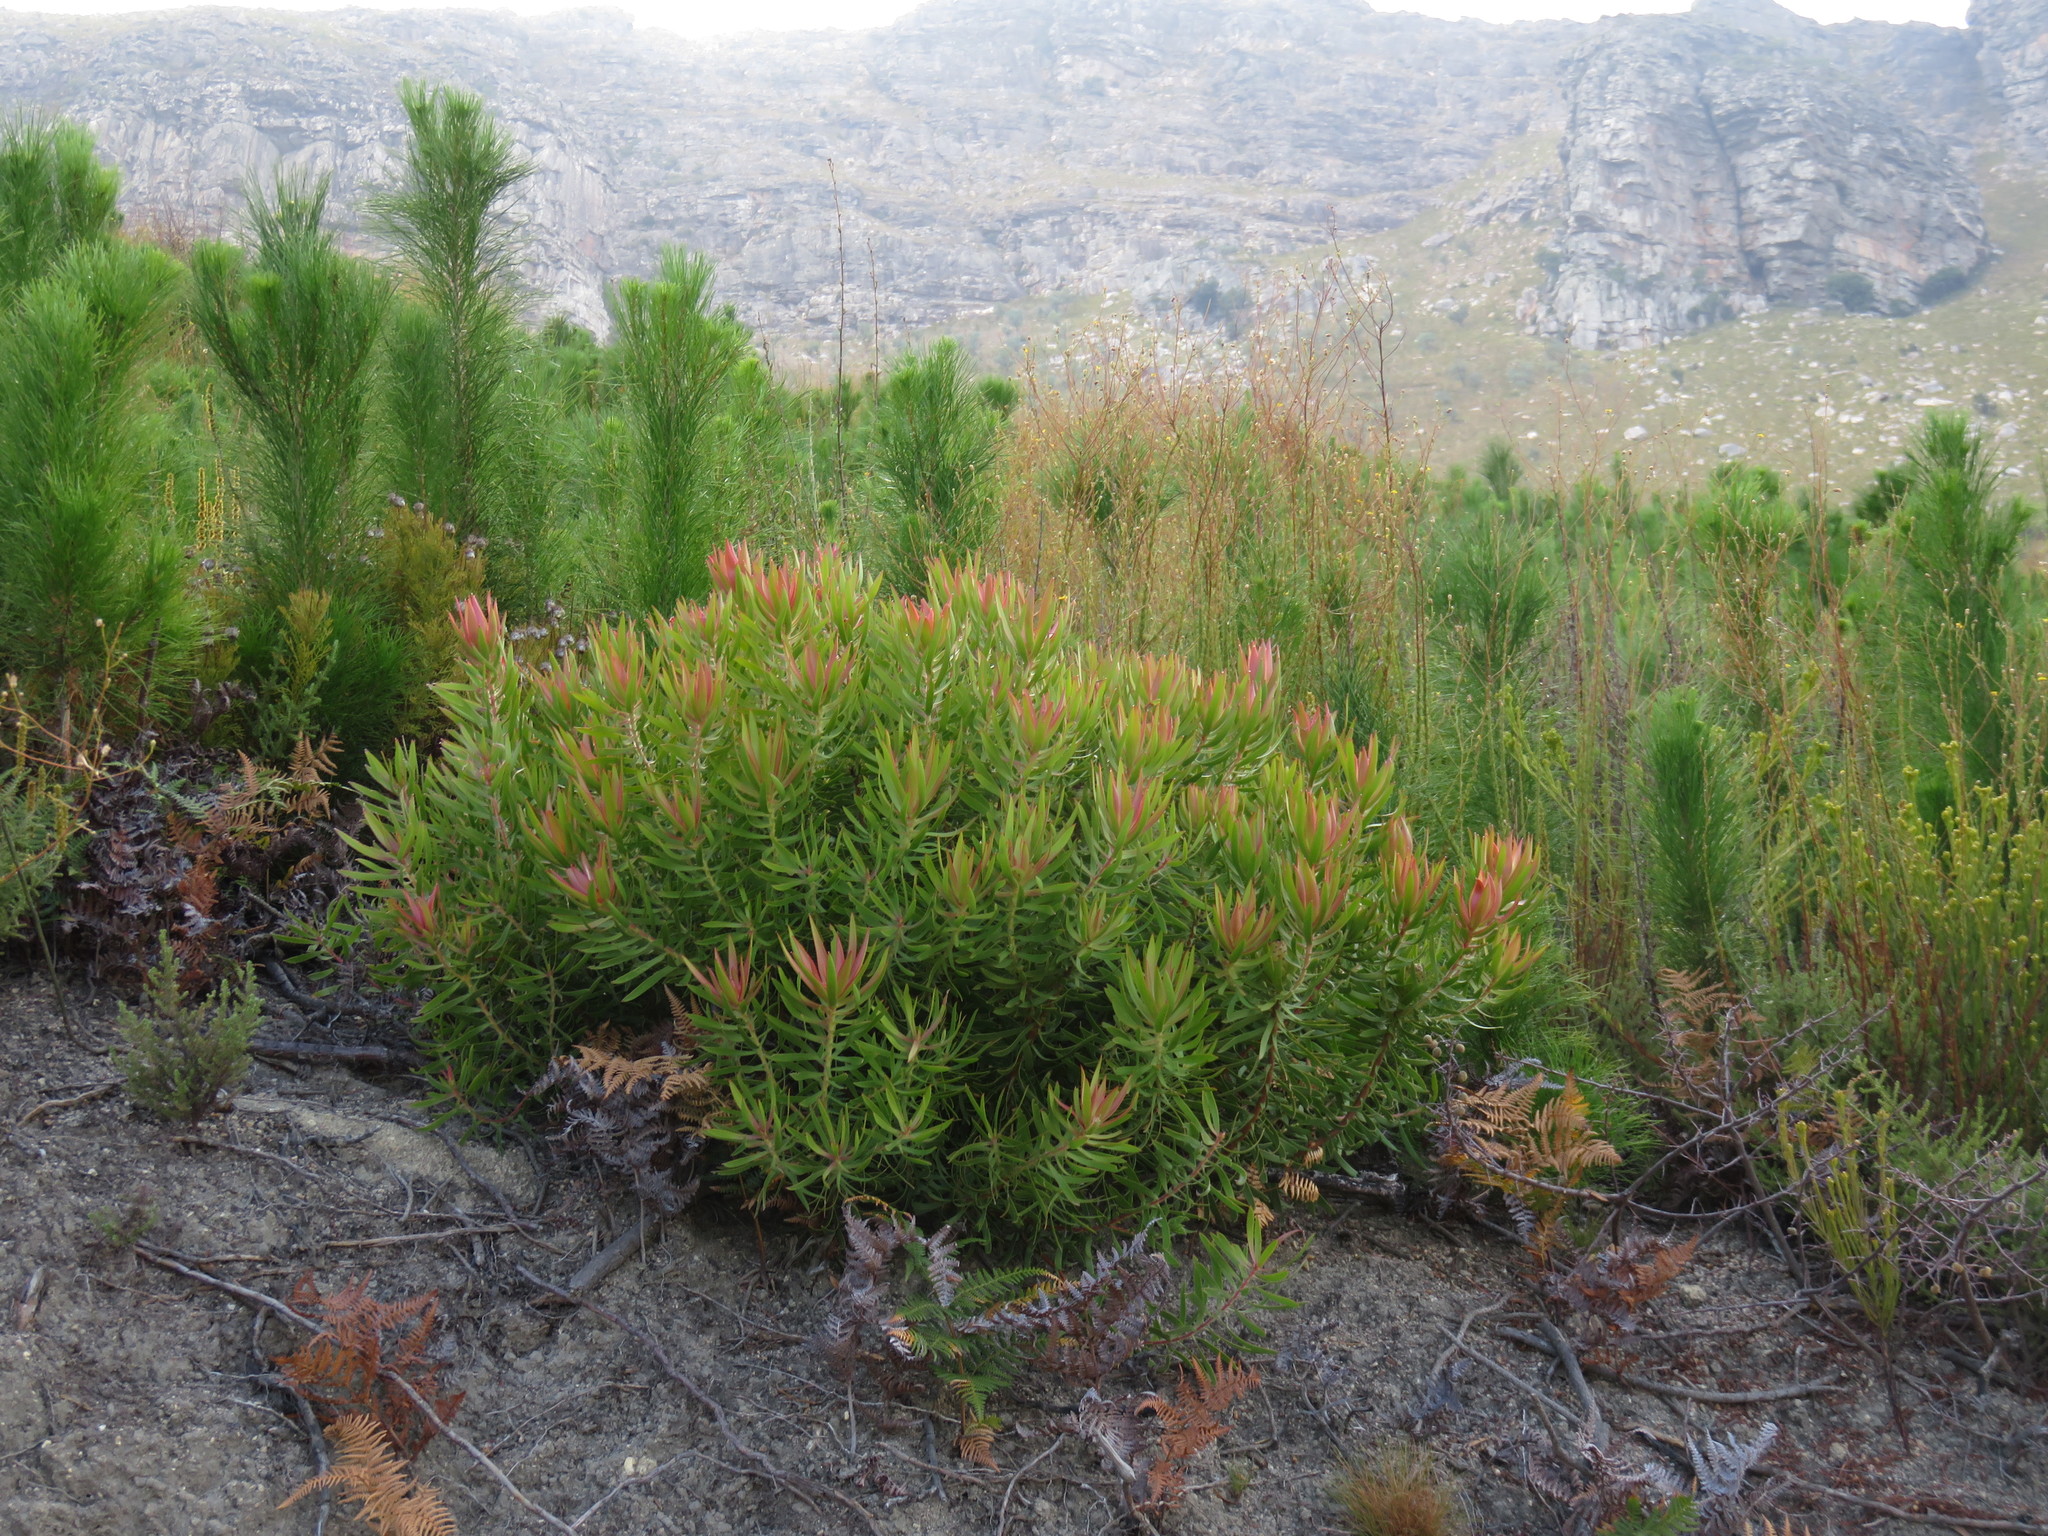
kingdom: Plantae
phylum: Tracheophyta
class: Magnoliopsida
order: Proteales
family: Proteaceae
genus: Leucadendron
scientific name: Leucadendron salignum
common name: Common sunshine conebush
